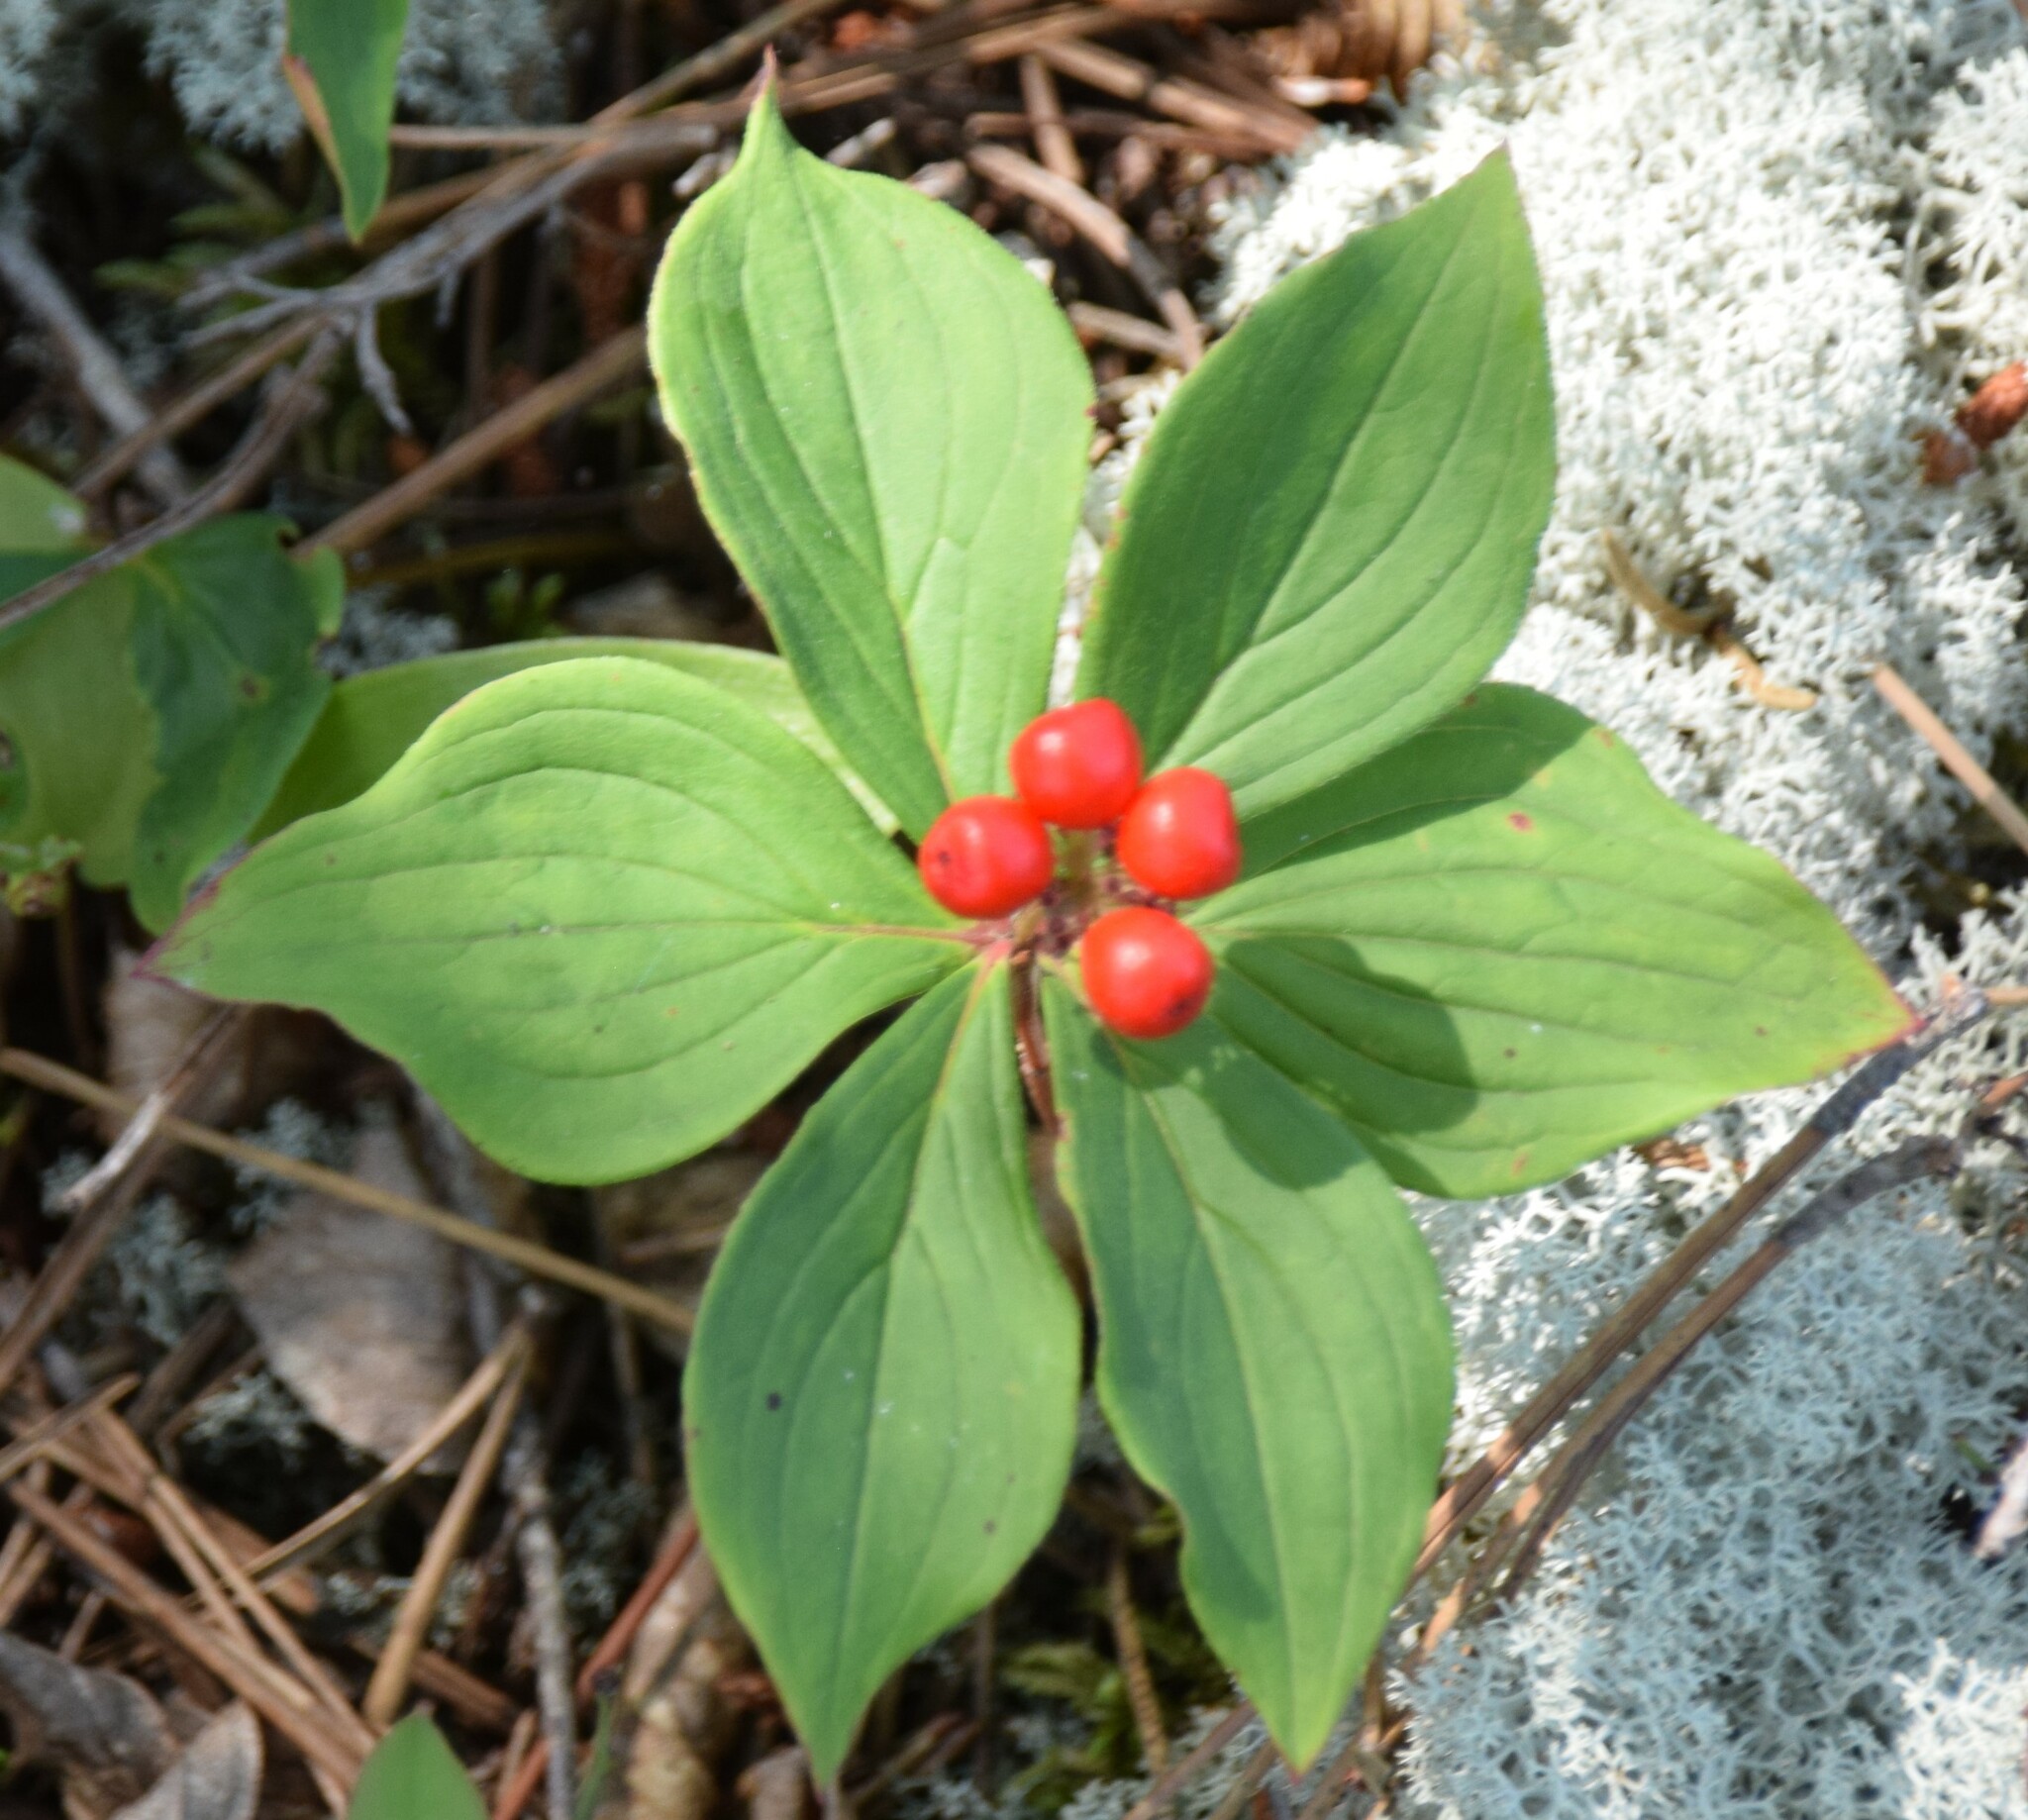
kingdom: Plantae
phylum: Tracheophyta
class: Magnoliopsida
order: Cornales
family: Cornaceae
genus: Cornus
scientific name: Cornus canadensis
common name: Creeping dogwood
